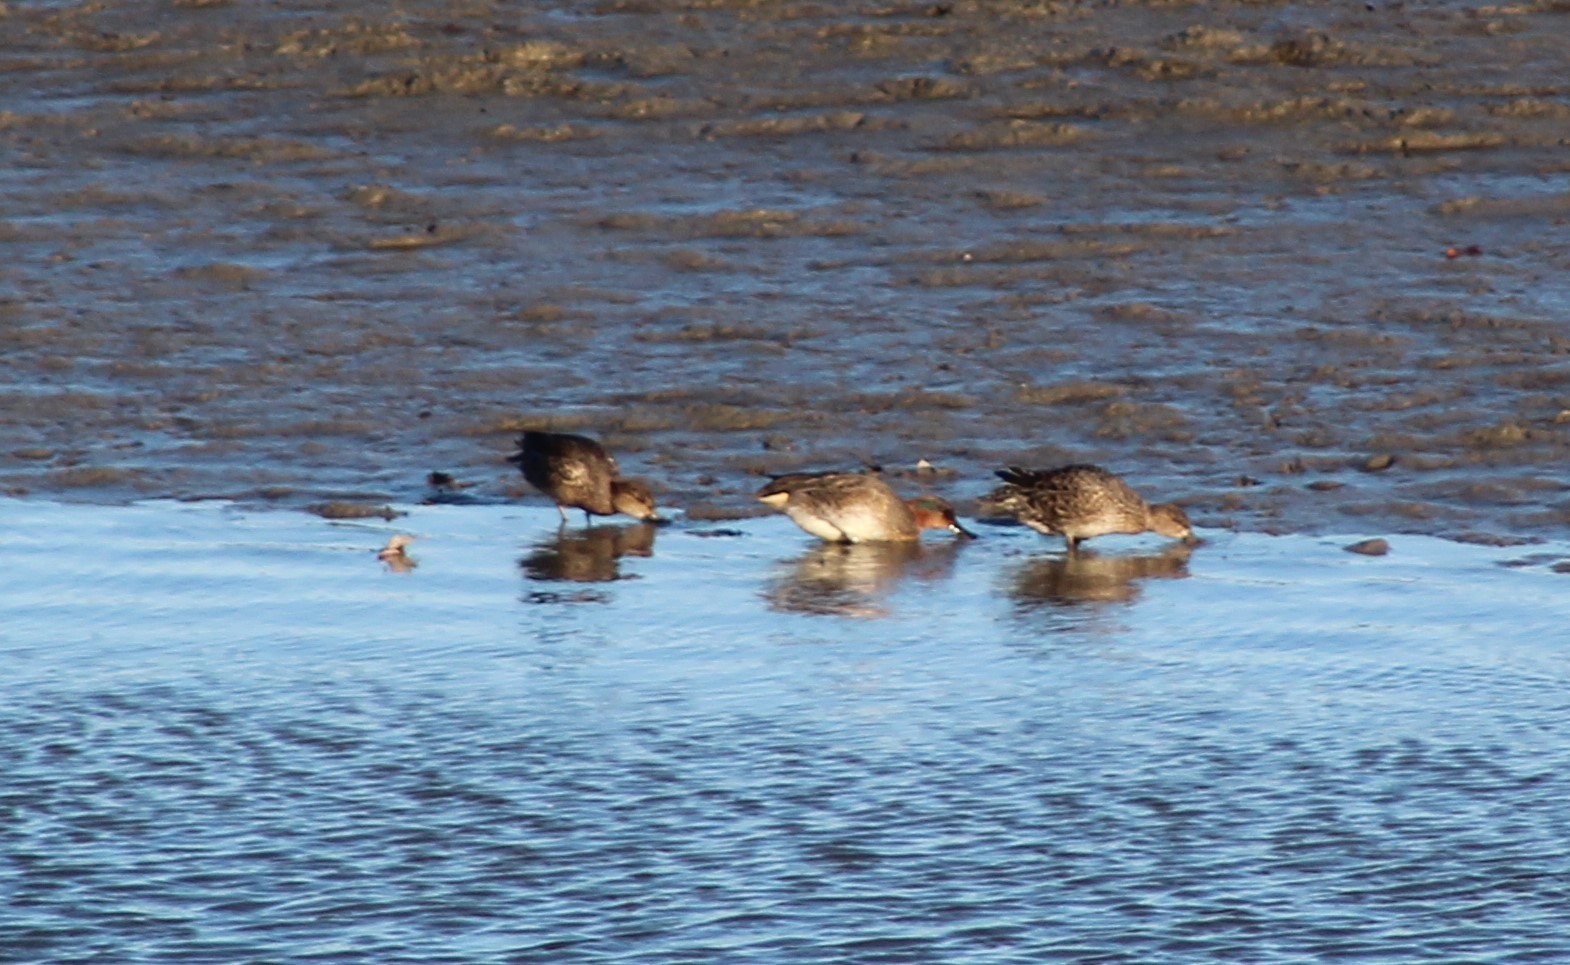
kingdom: Animalia
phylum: Chordata
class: Aves
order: Anseriformes
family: Anatidae
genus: Anas
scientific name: Anas carolinensis
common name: Green-winged teal
